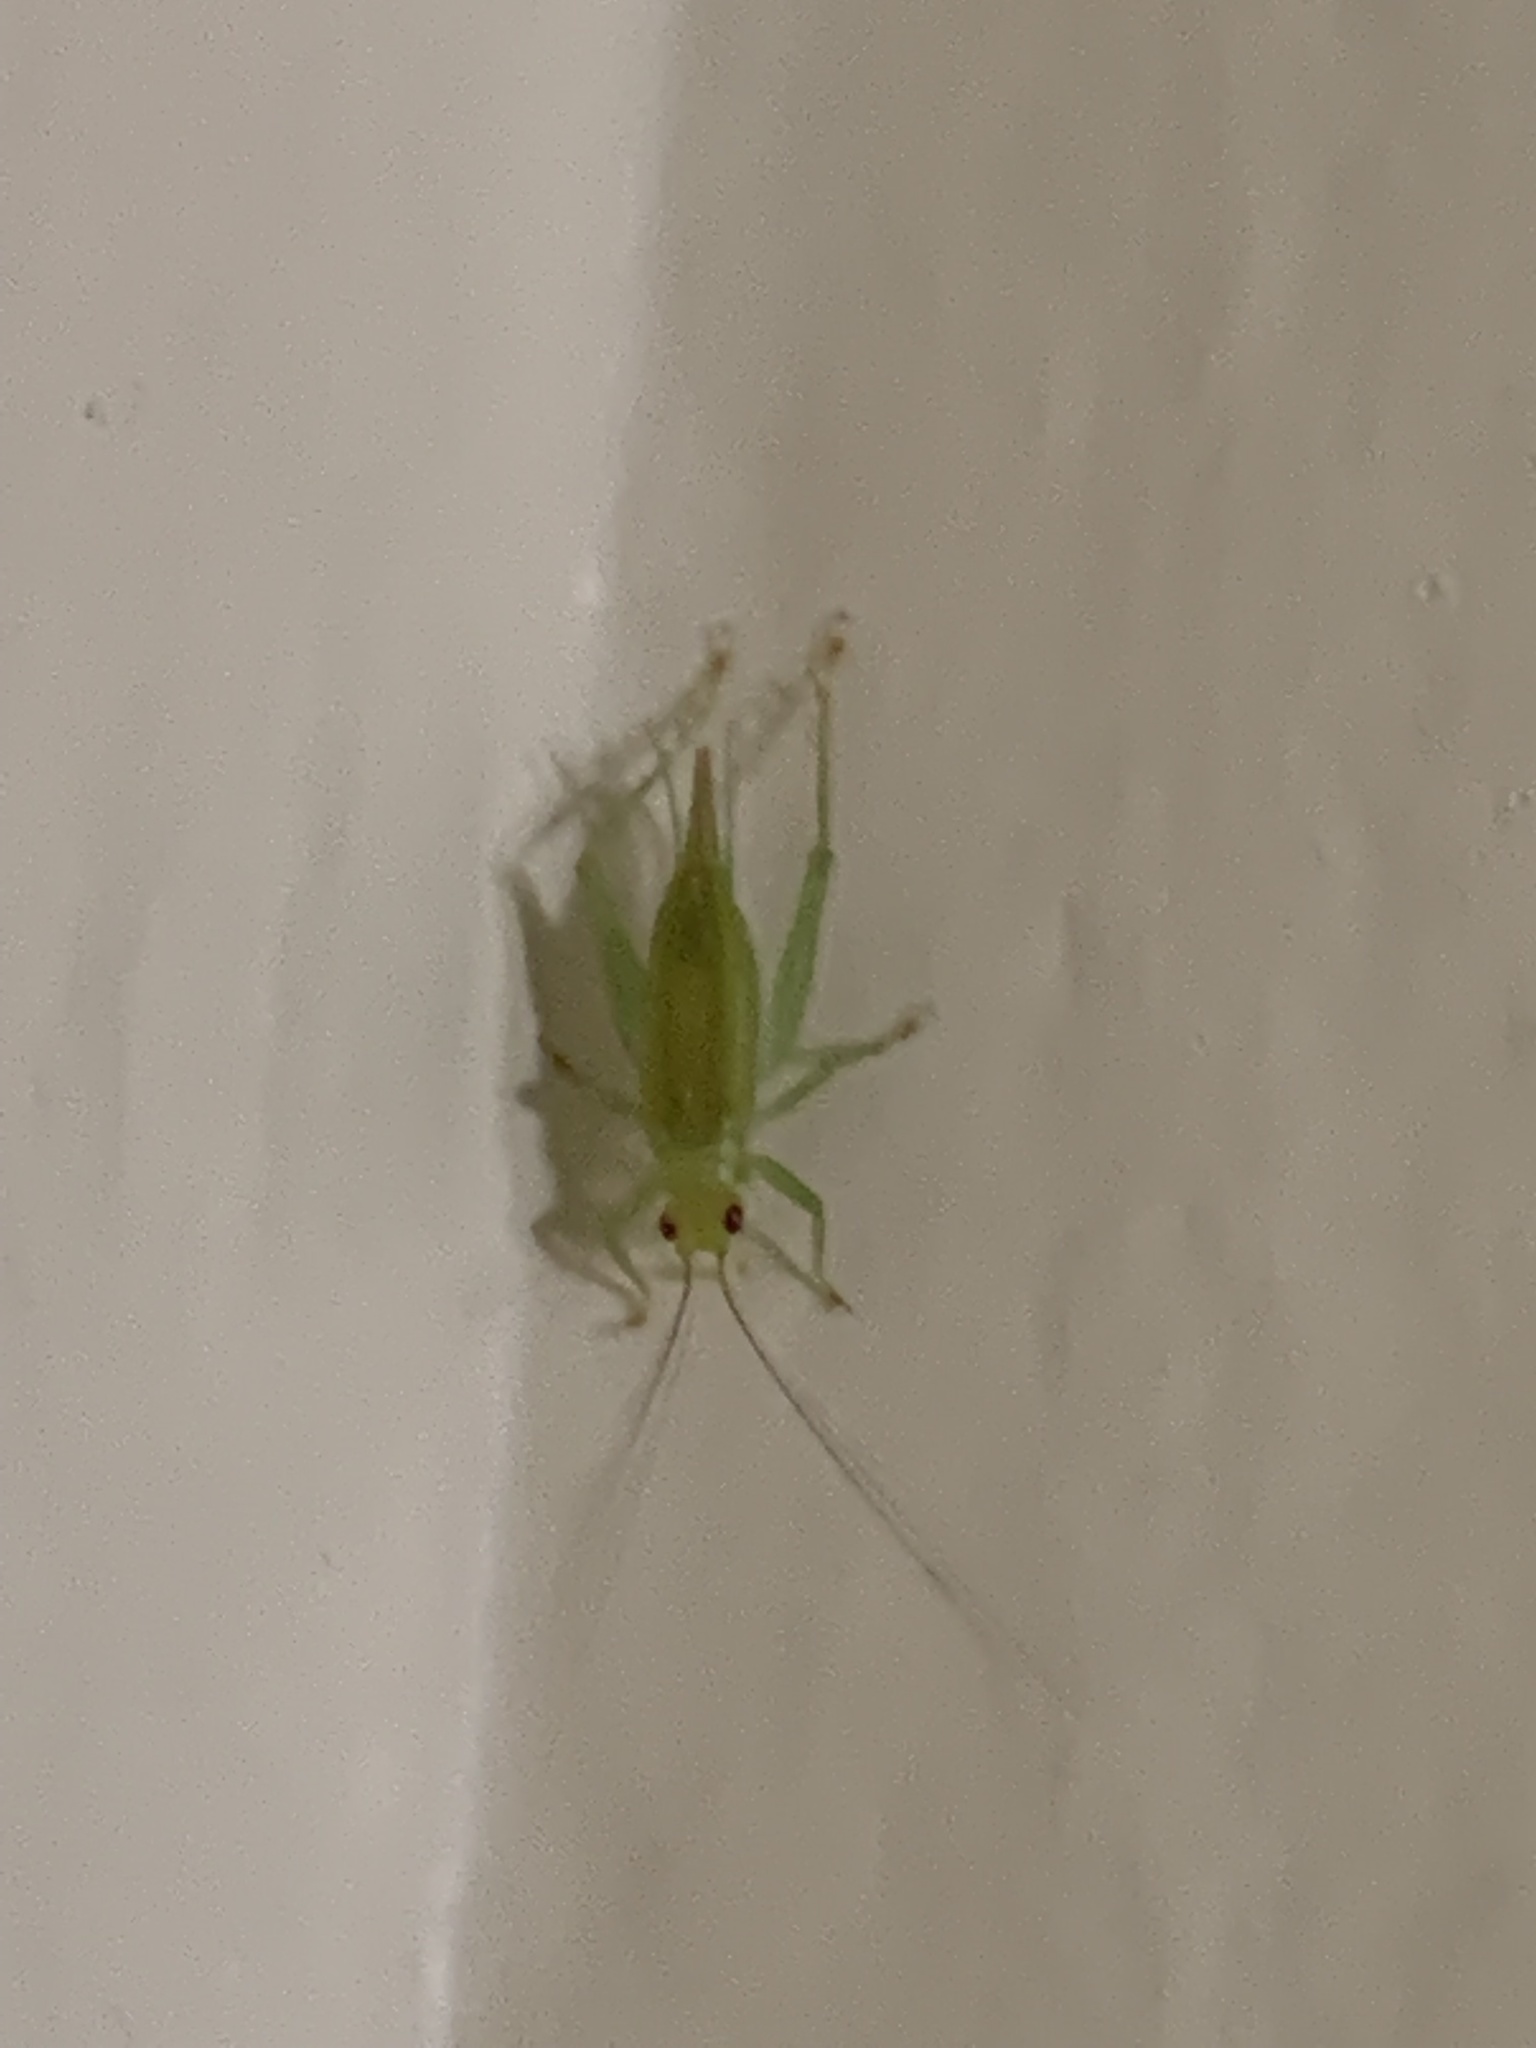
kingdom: Animalia
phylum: Arthropoda
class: Insecta
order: Orthoptera
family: Trigonidiidae
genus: Cyrtoxipha
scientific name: Cyrtoxipha columbiana
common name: Columbian trig
